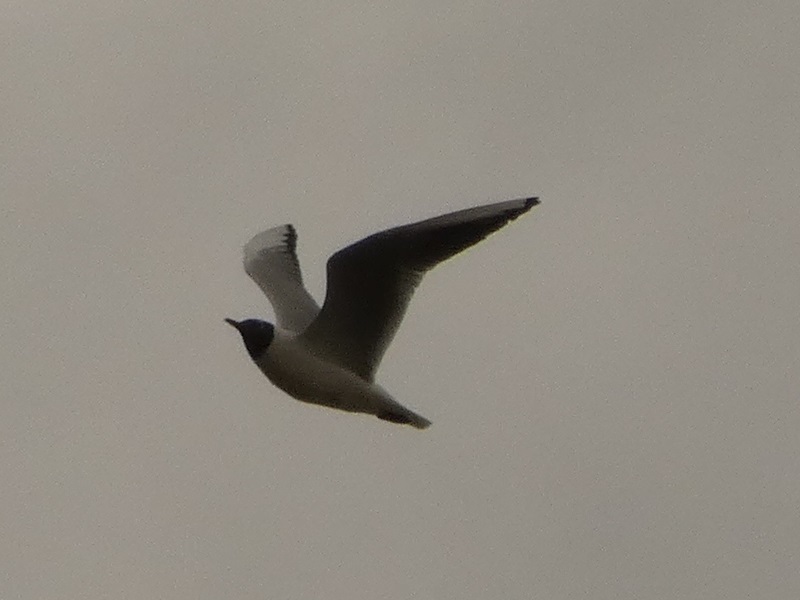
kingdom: Animalia
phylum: Chordata
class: Aves
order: Charadriiformes
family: Laridae
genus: Chroicocephalus
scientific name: Chroicocephalus ridibundus
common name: Black-headed gull
